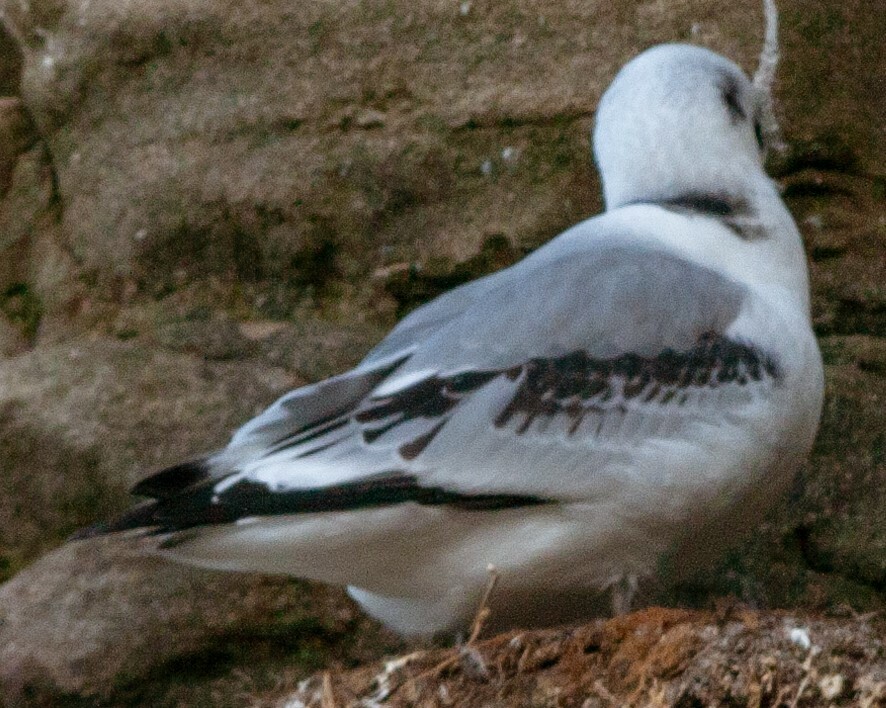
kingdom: Animalia
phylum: Chordata
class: Aves
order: Charadriiformes
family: Laridae
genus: Rissa
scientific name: Rissa tridactyla
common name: Black-legged kittiwake
